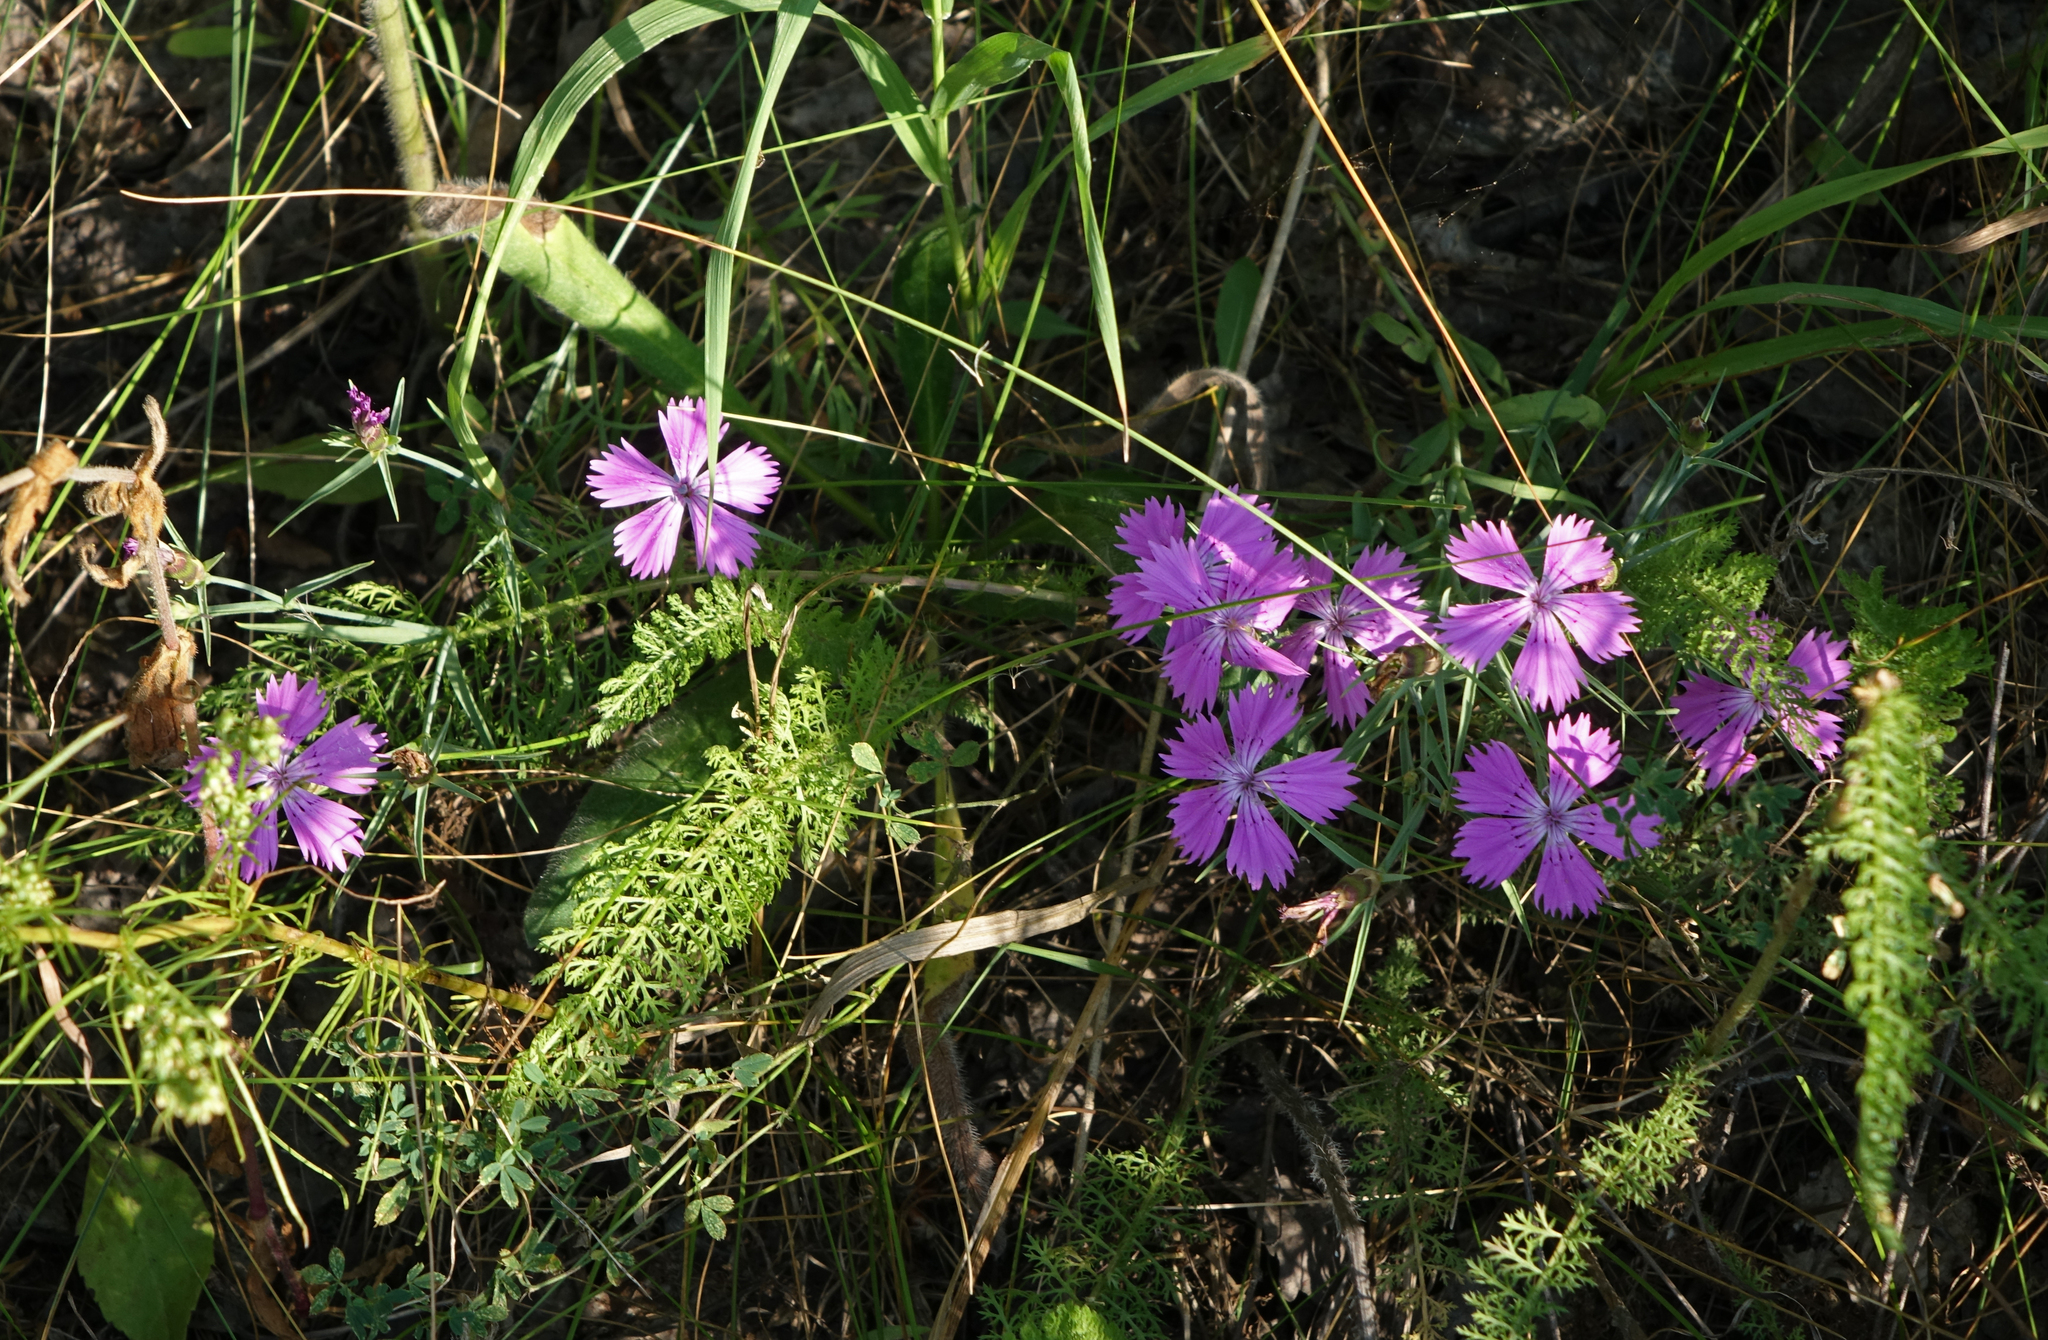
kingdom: Plantae
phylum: Tracheophyta
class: Magnoliopsida
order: Caryophyllales
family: Caryophyllaceae
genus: Dianthus
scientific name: Dianthus chinensis
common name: Rainbow pink
